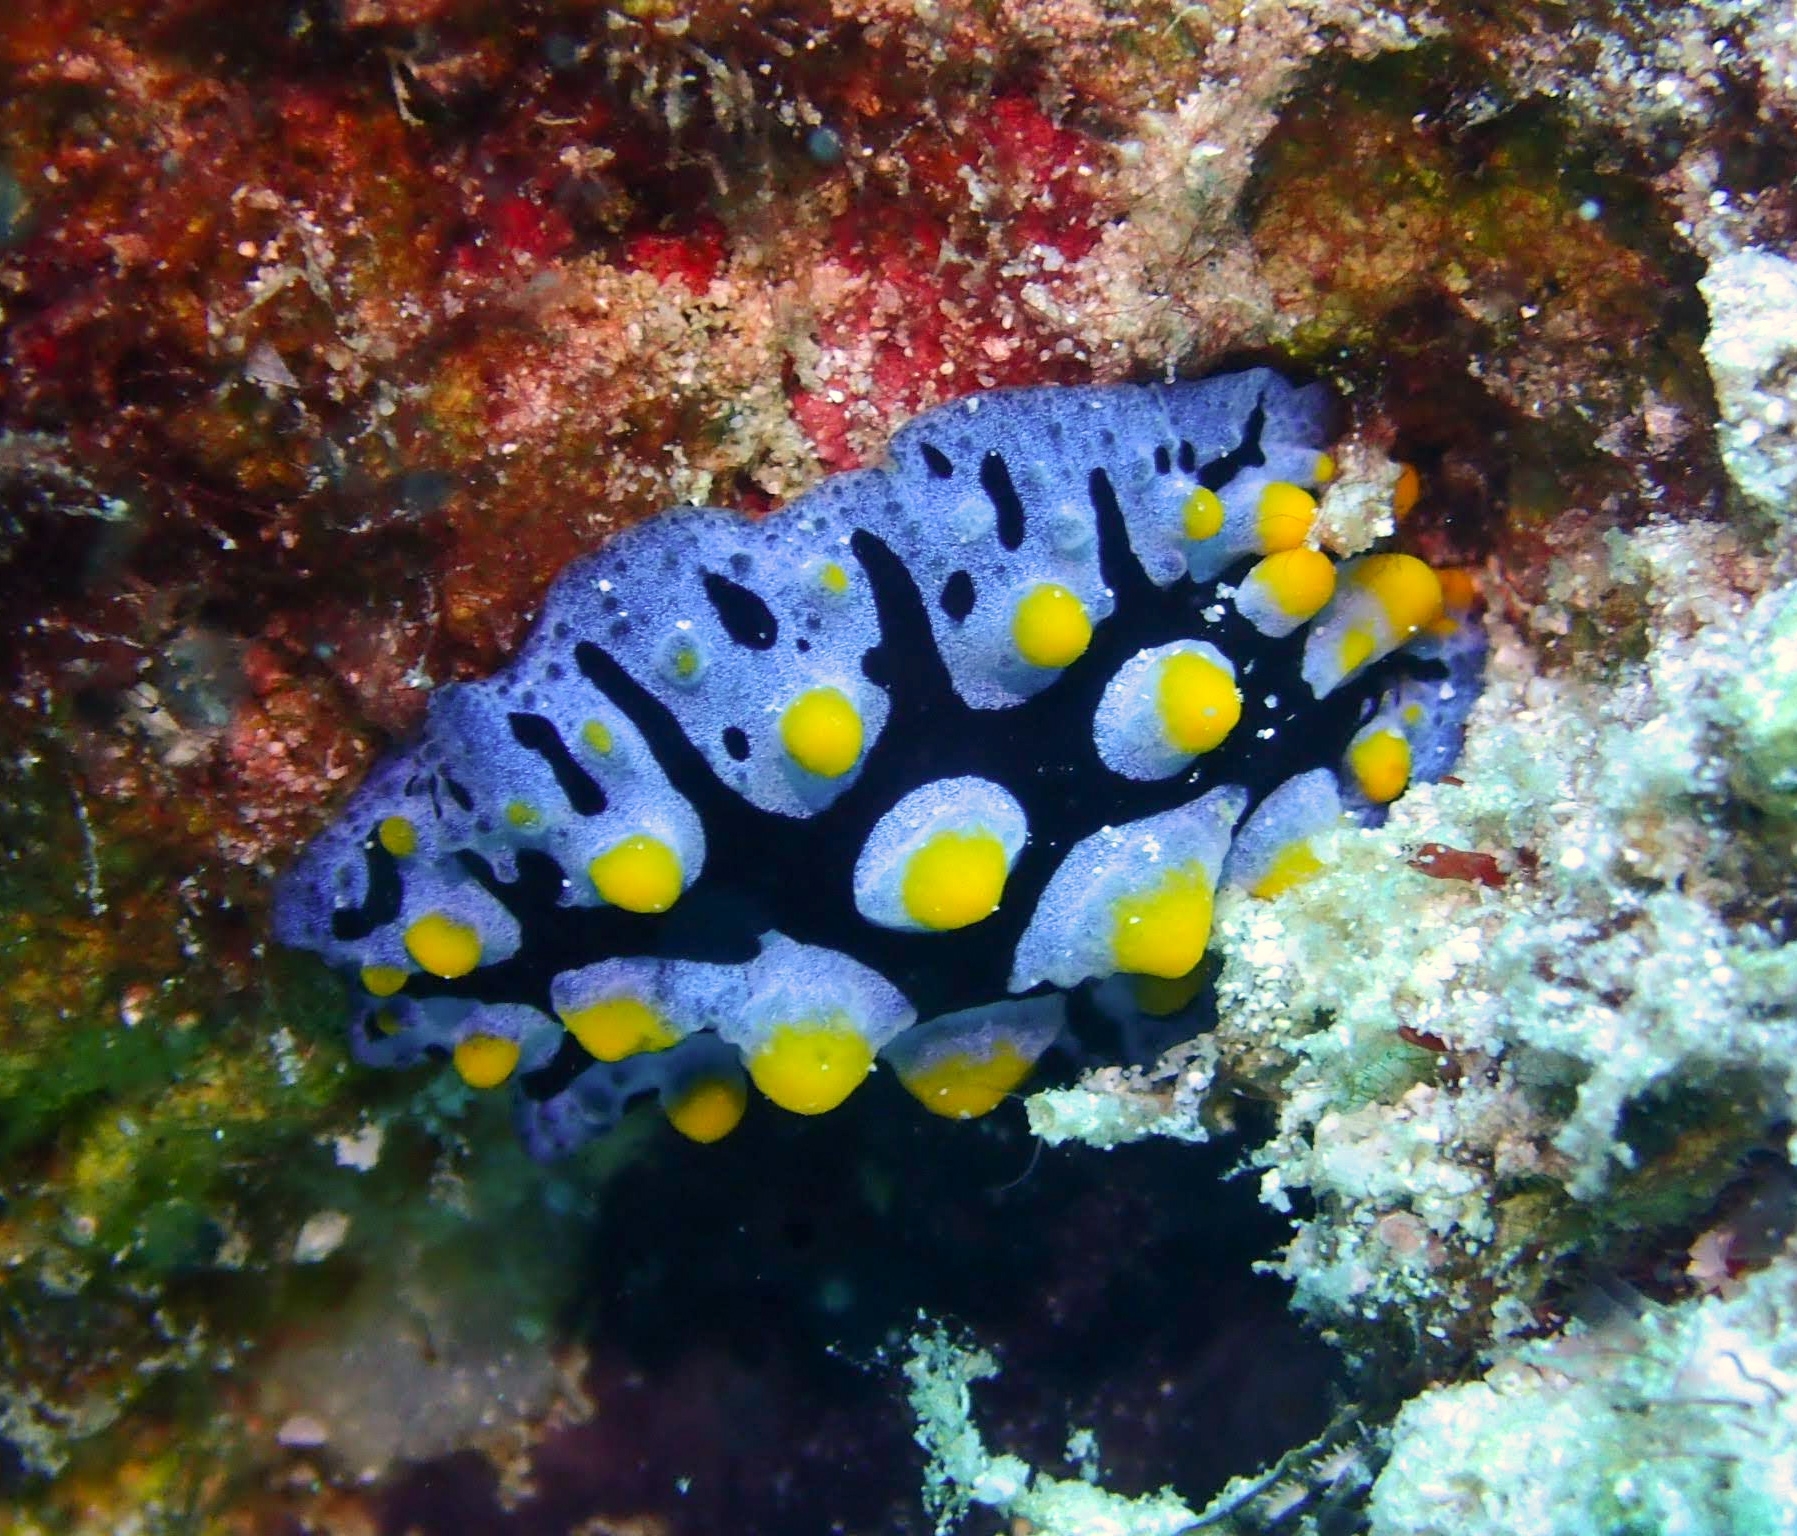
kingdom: Animalia
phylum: Mollusca
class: Gastropoda
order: Nudibranchia
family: Phyllidiidae
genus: Phyllidia
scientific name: Phyllidia picta
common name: Black-rayed phyllidia
